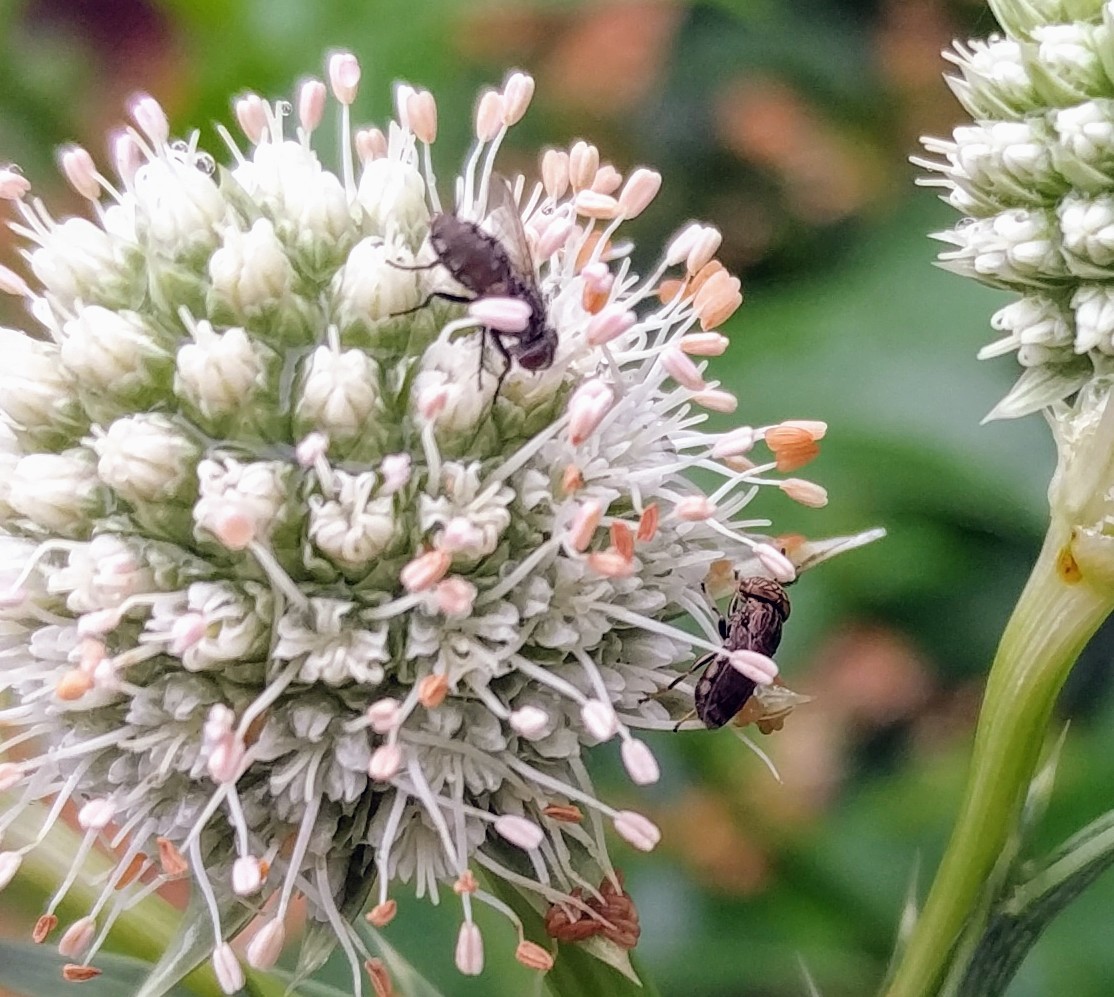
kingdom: Animalia
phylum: Arthropoda
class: Insecta
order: Diptera
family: Syrphidae
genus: Orthonevra
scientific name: Orthonevra nitida
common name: Wavy mucksucker
